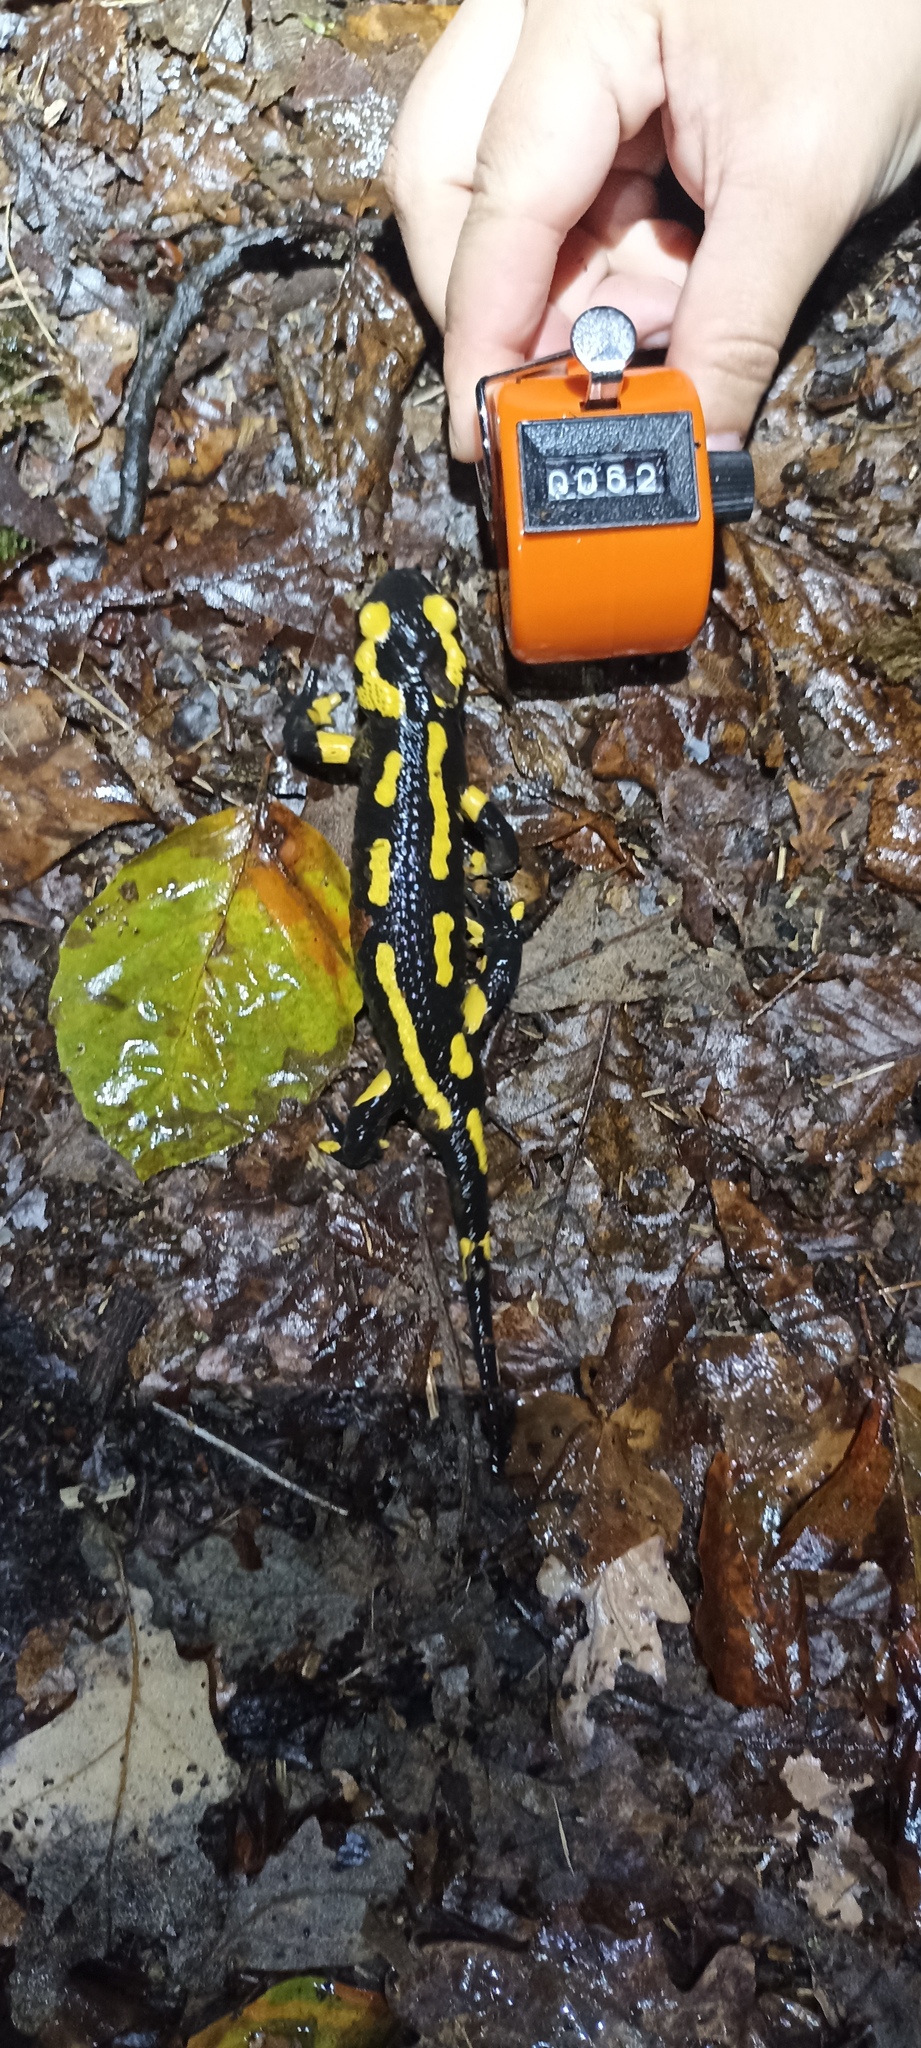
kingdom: Animalia
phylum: Chordata
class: Amphibia
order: Caudata
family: Salamandridae
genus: Salamandra
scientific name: Salamandra salamandra
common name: Fire salamander
